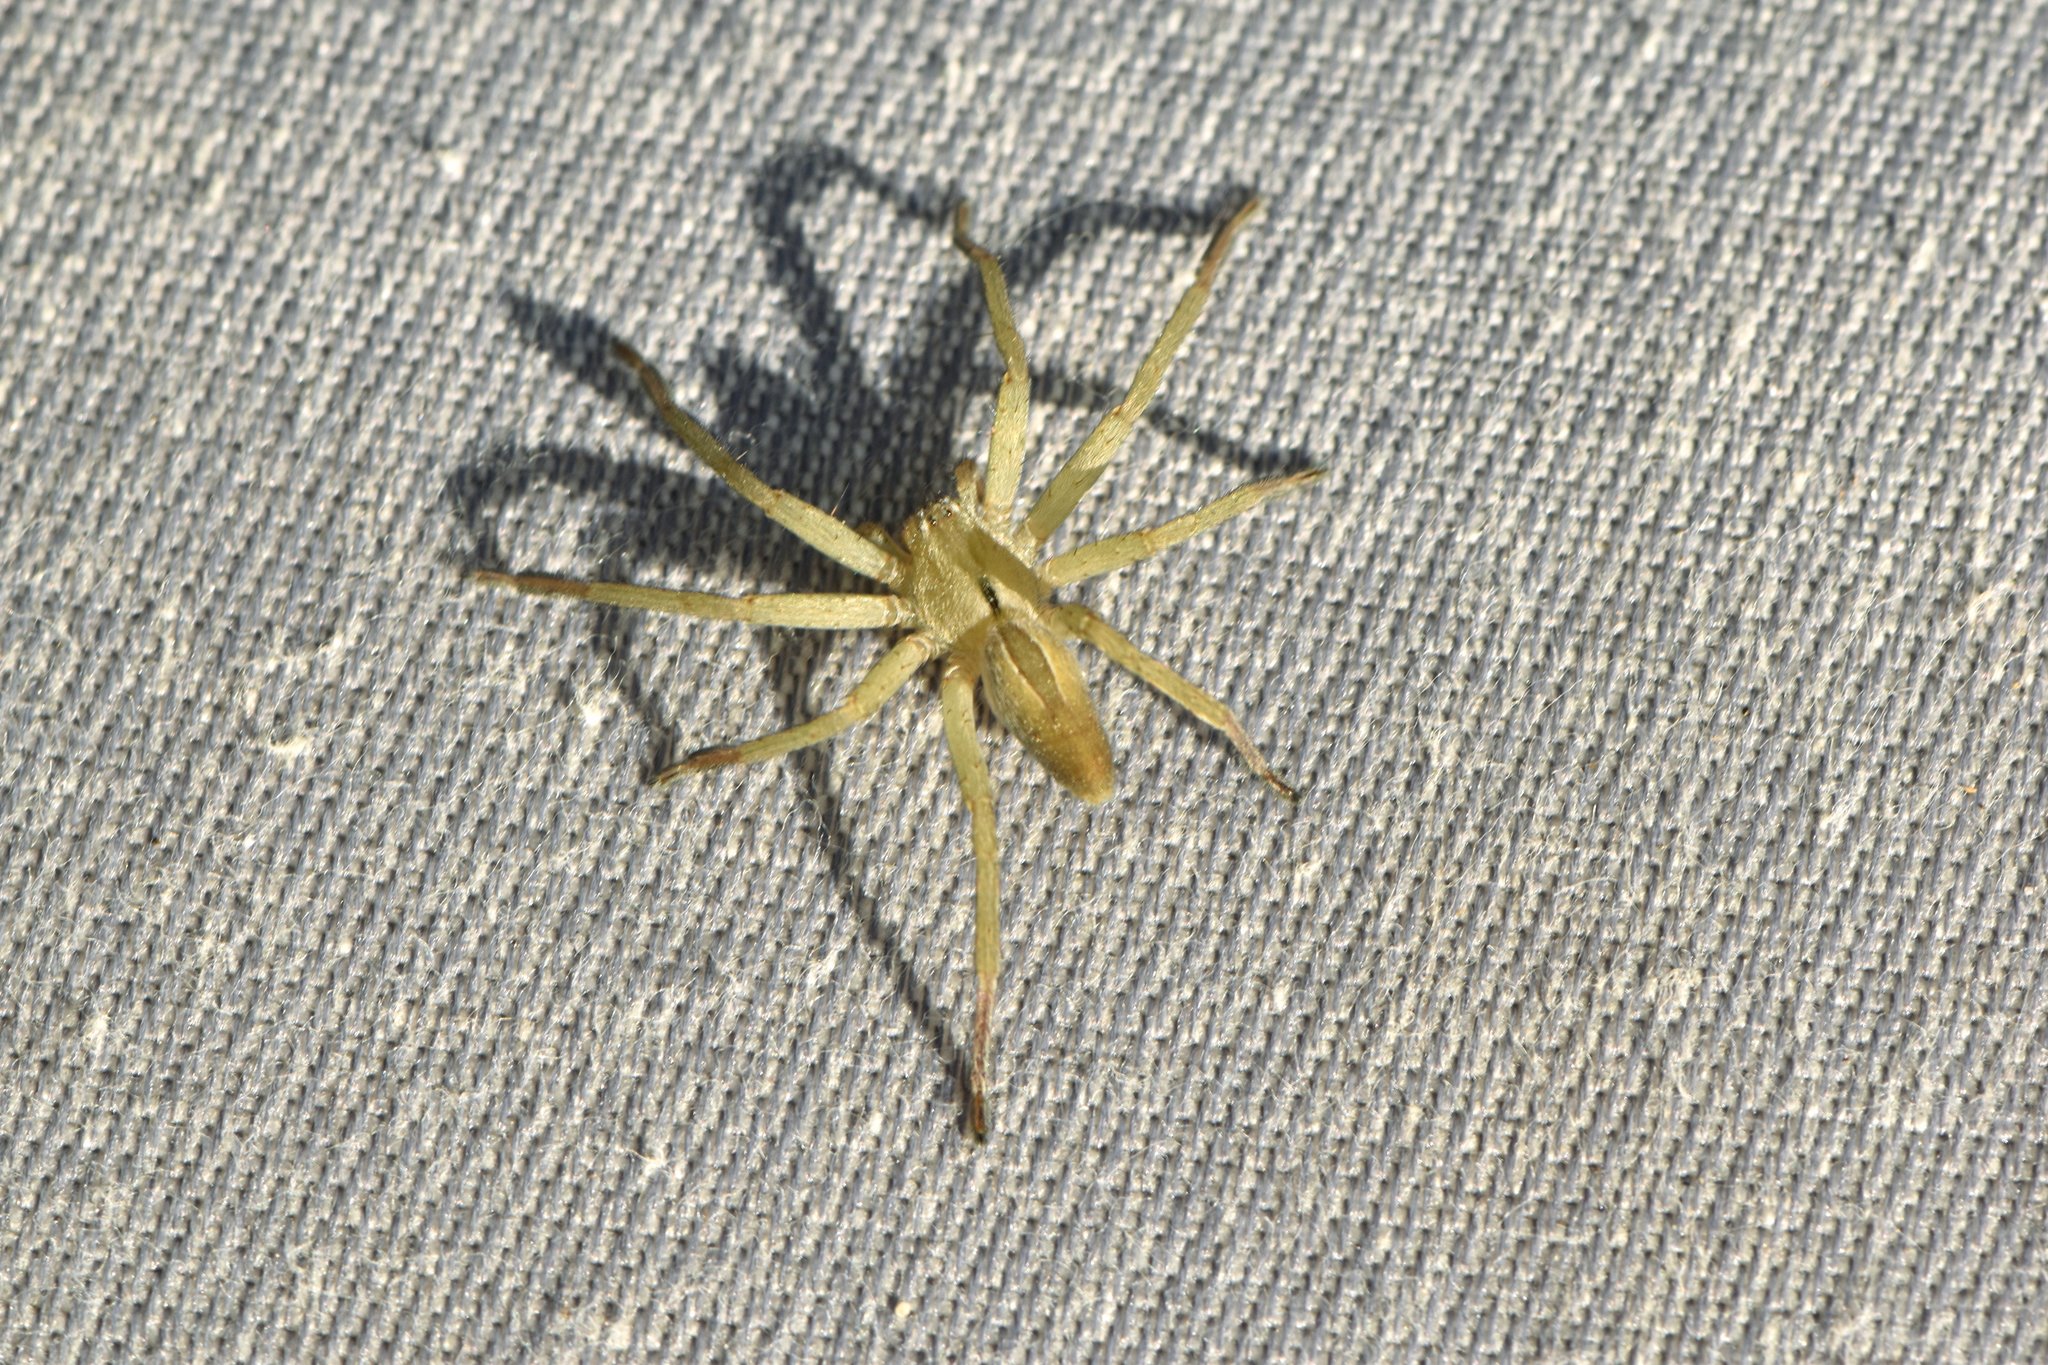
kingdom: Animalia
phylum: Arthropoda
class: Arachnida
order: Araneae
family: Sparassidae
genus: Micrommata
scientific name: Micrommata ligurina
